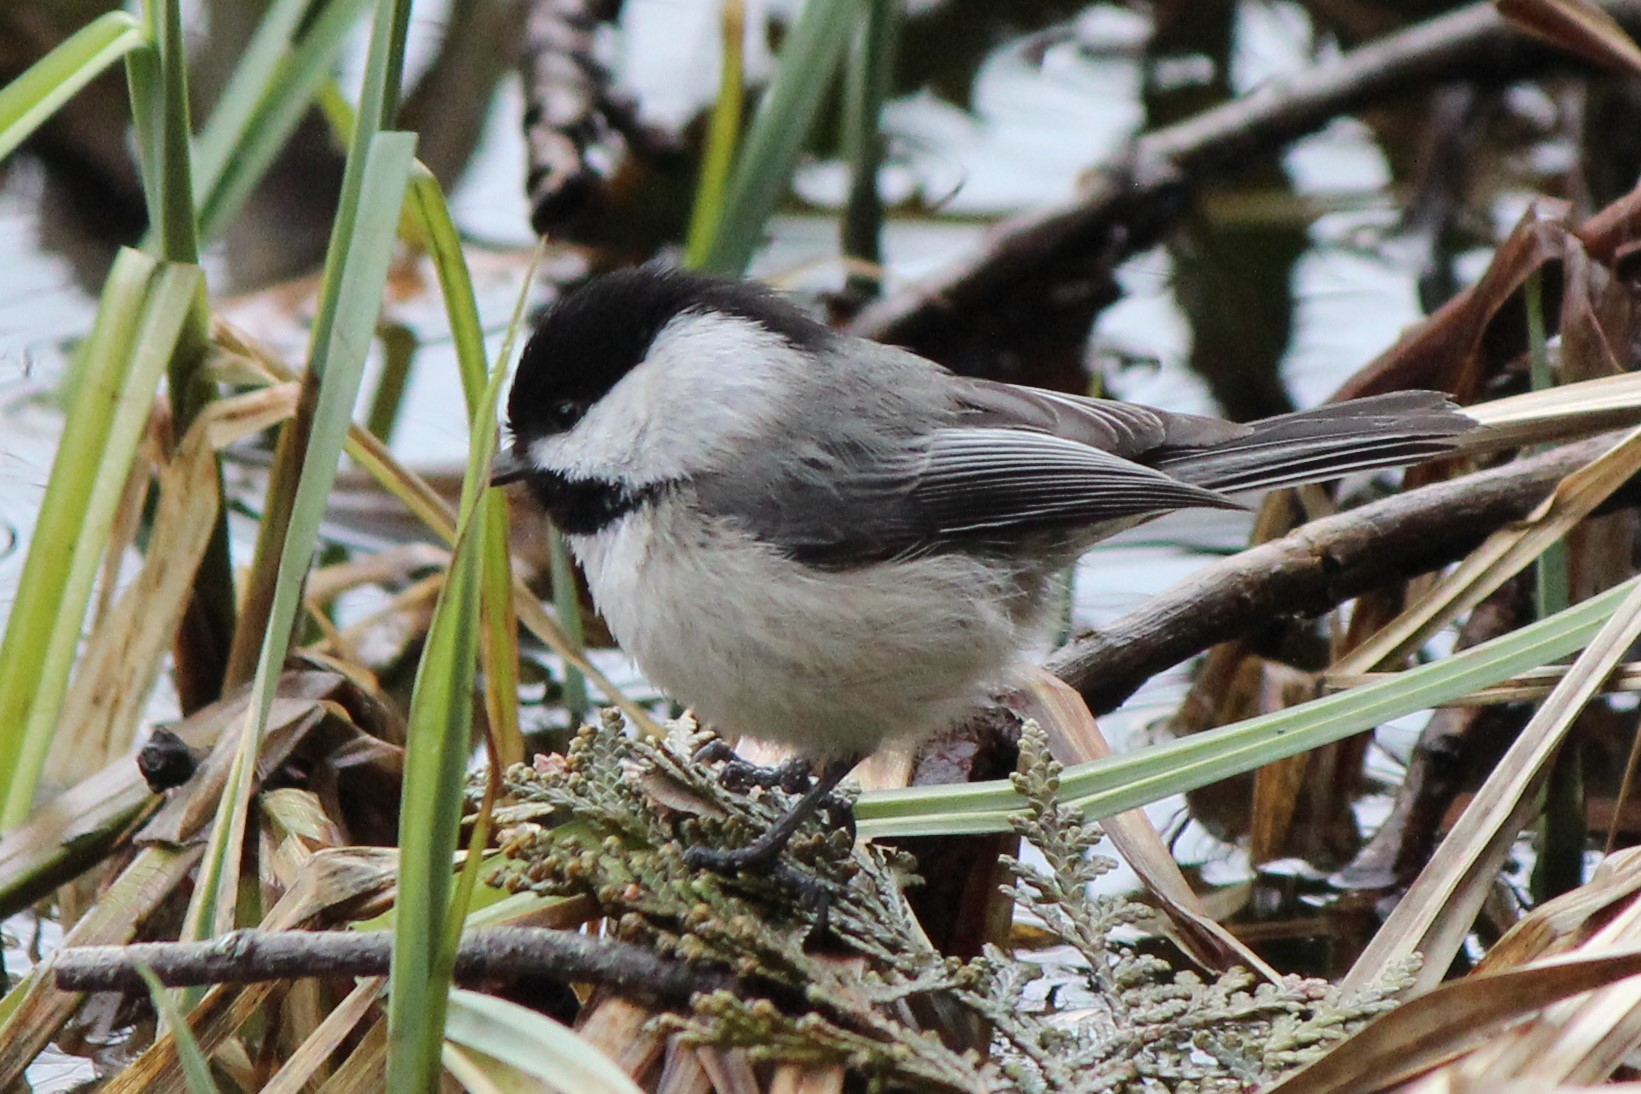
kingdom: Animalia
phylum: Chordata
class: Aves
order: Passeriformes
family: Paridae
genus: Poecile
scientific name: Poecile atricapillus
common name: Black-capped chickadee
